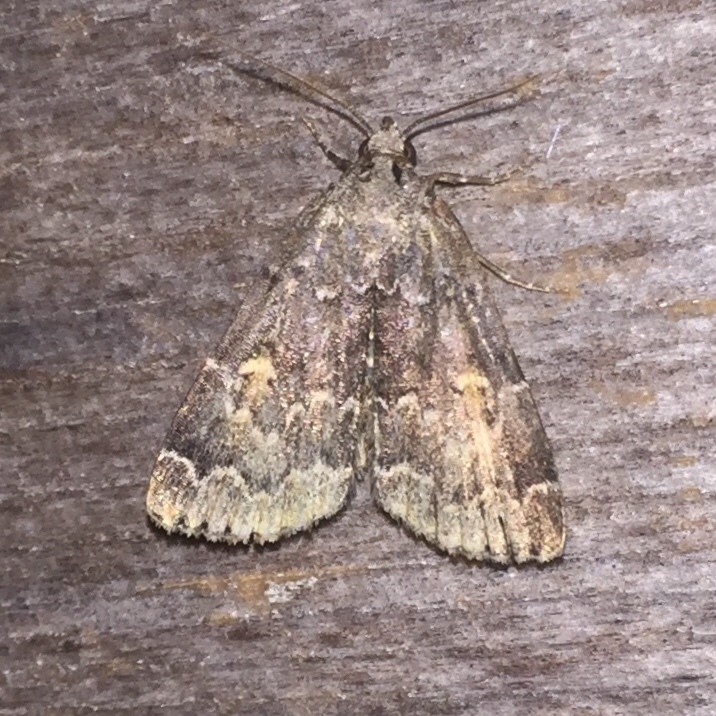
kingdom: Animalia
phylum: Arthropoda
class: Insecta
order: Lepidoptera
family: Erebidae
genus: Idia
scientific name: Idia americalis
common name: American idia moth
